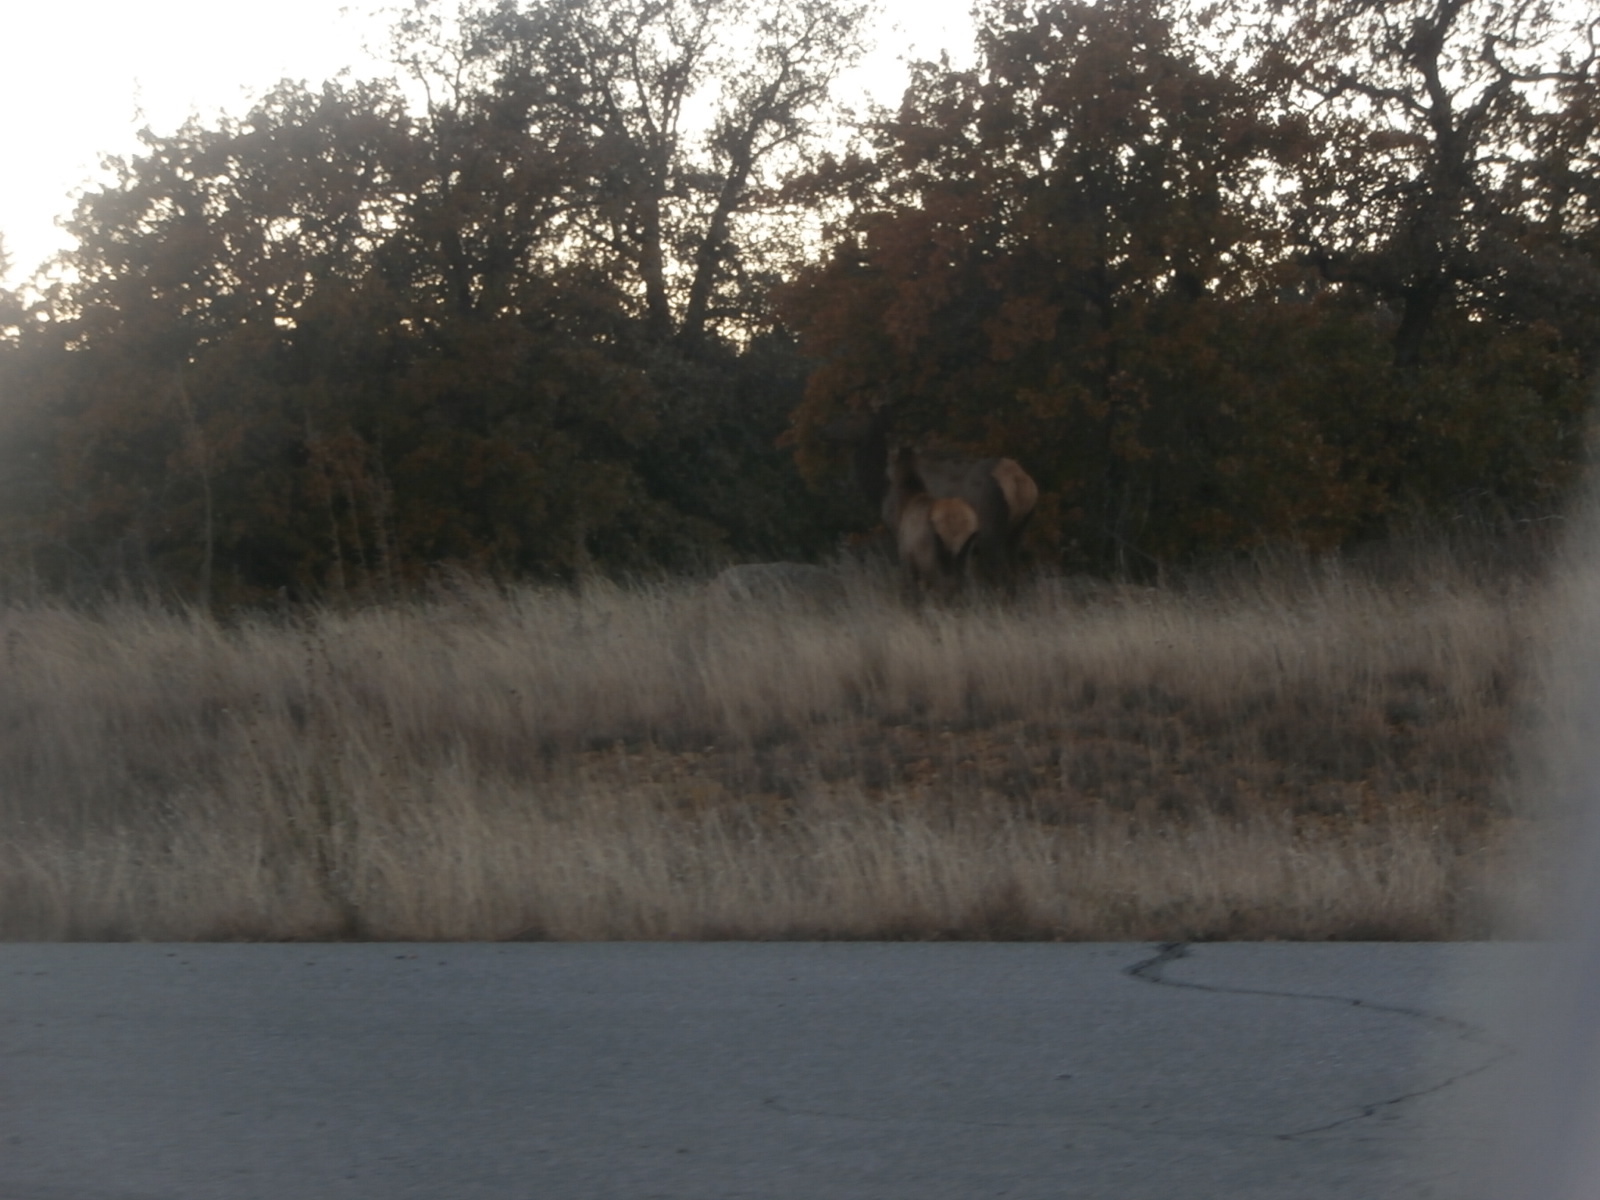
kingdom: Animalia
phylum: Chordata
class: Mammalia
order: Artiodactyla
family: Cervidae
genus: Cervus
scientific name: Cervus elaphus
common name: Red deer
